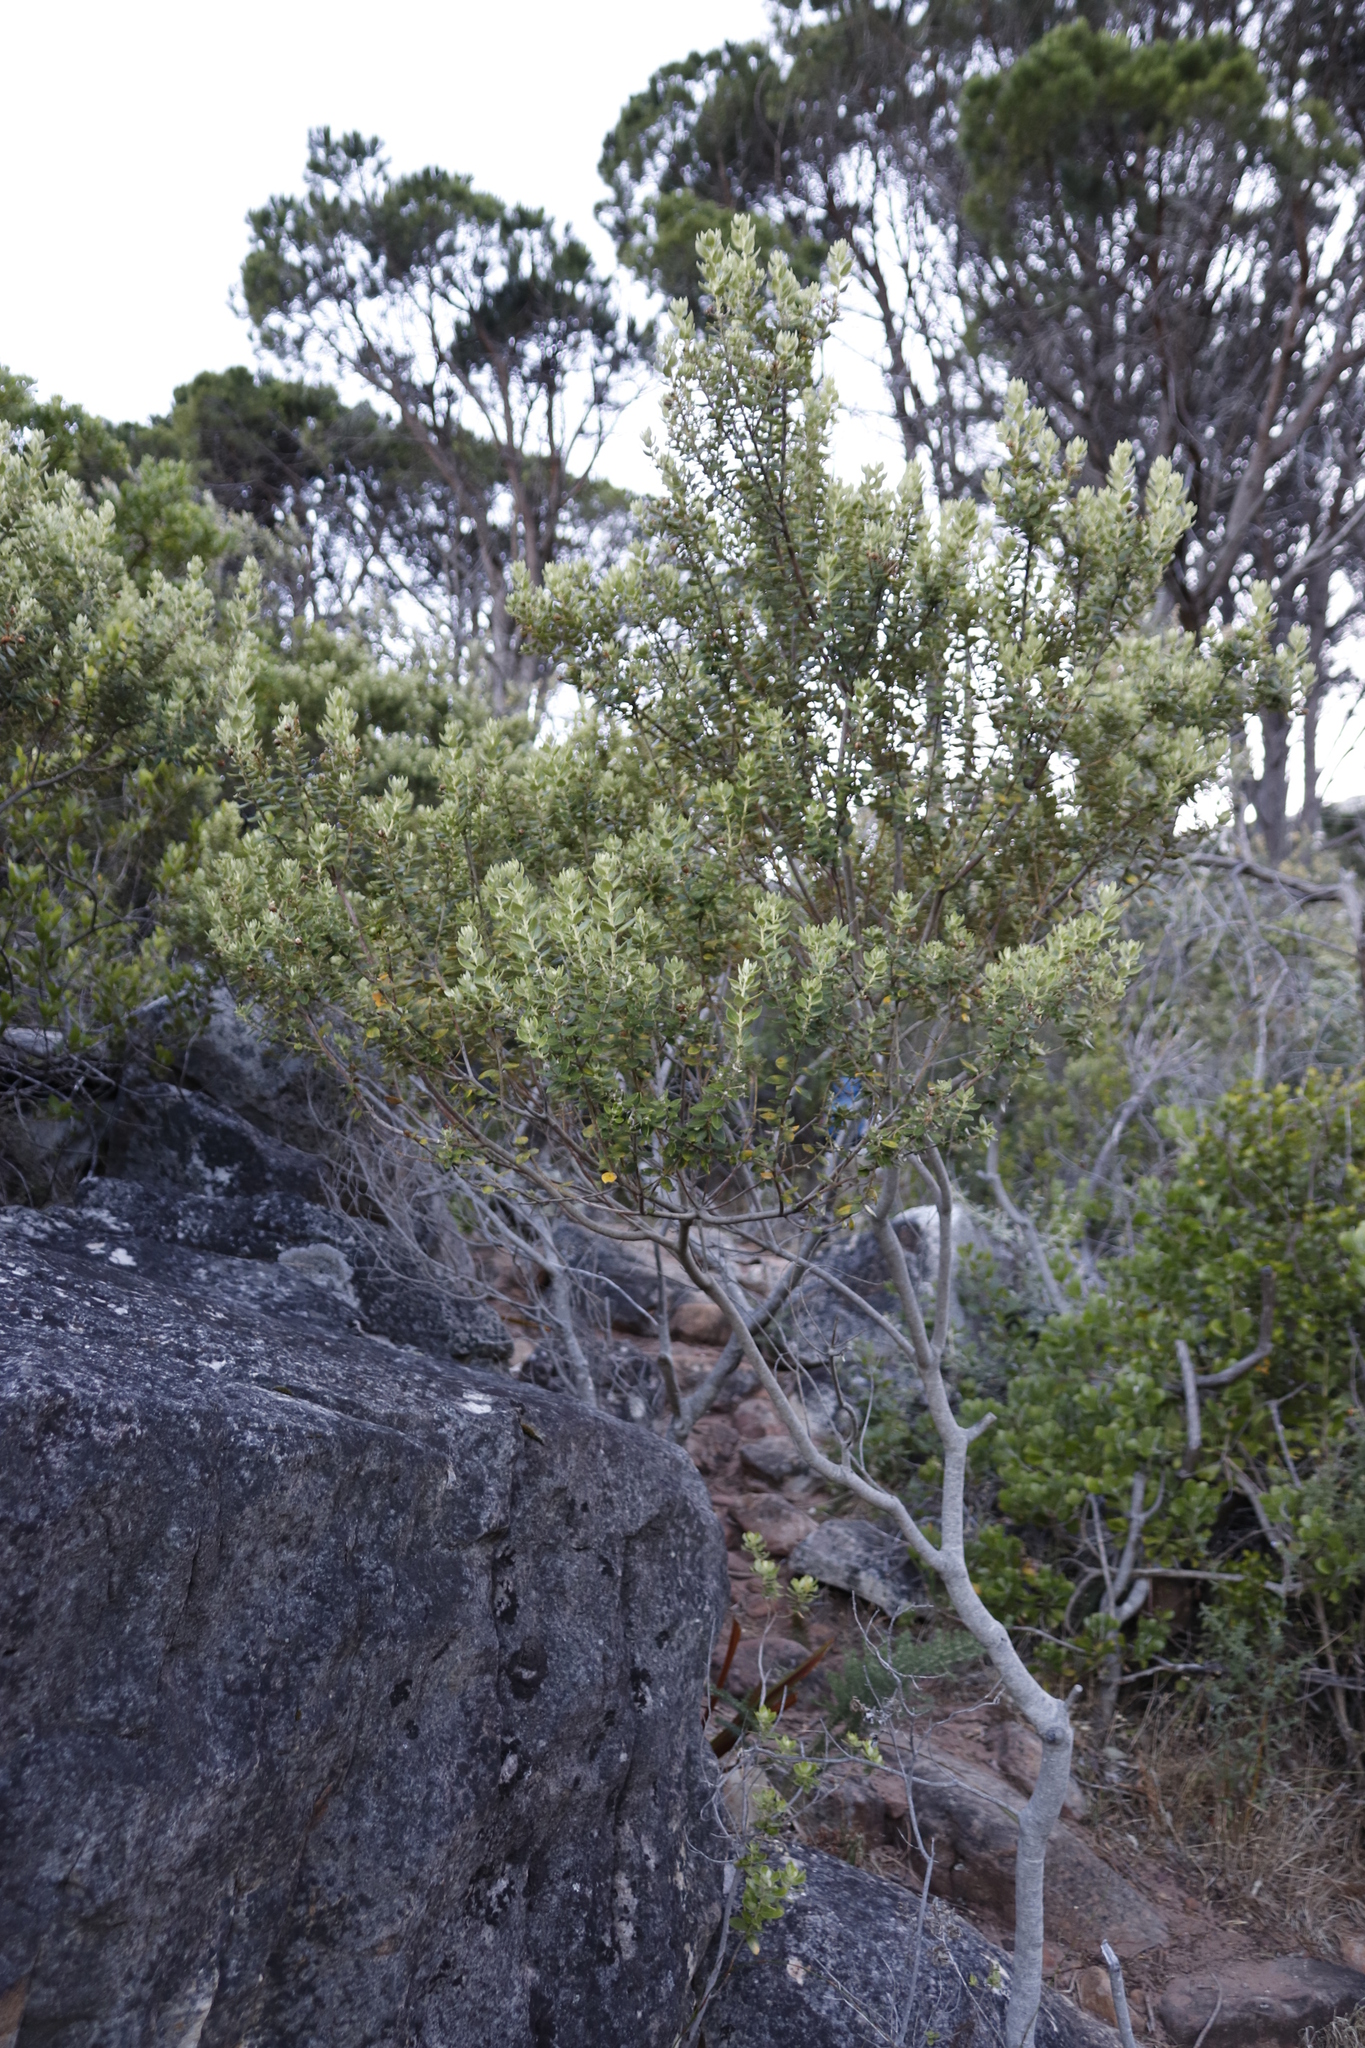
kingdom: Plantae
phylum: Tracheophyta
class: Magnoliopsida
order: Rosales
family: Rhamnaceae
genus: Phylica
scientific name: Phylica buxifolia
